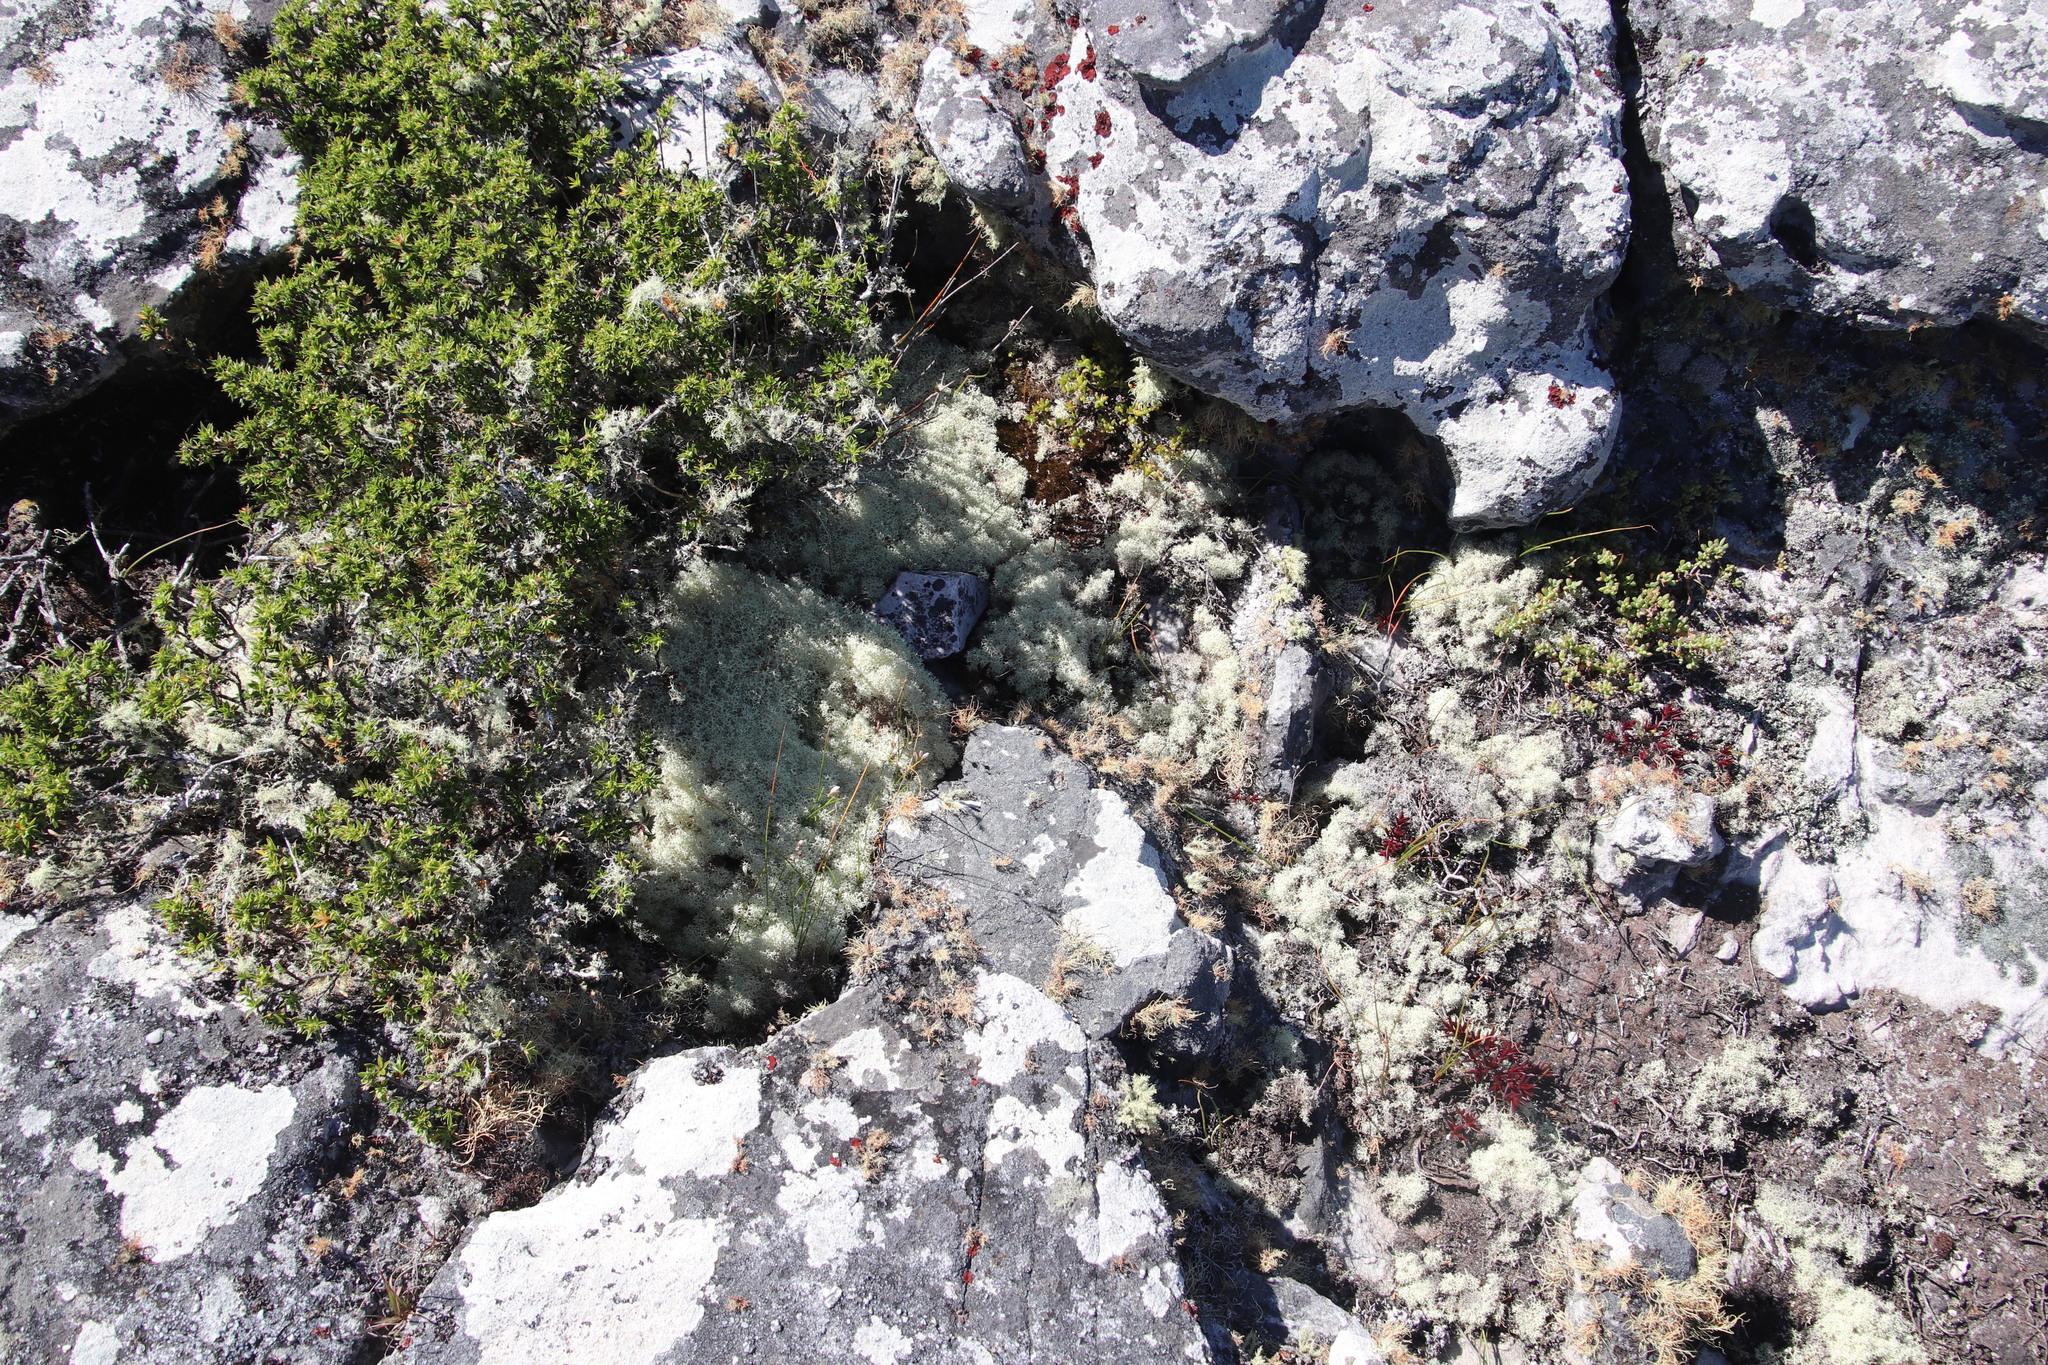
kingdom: Fungi
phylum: Ascomycota
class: Lecanoromycetes
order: Lecanorales
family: Cladoniaceae
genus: Cladonia
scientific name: Cladonia confusa
